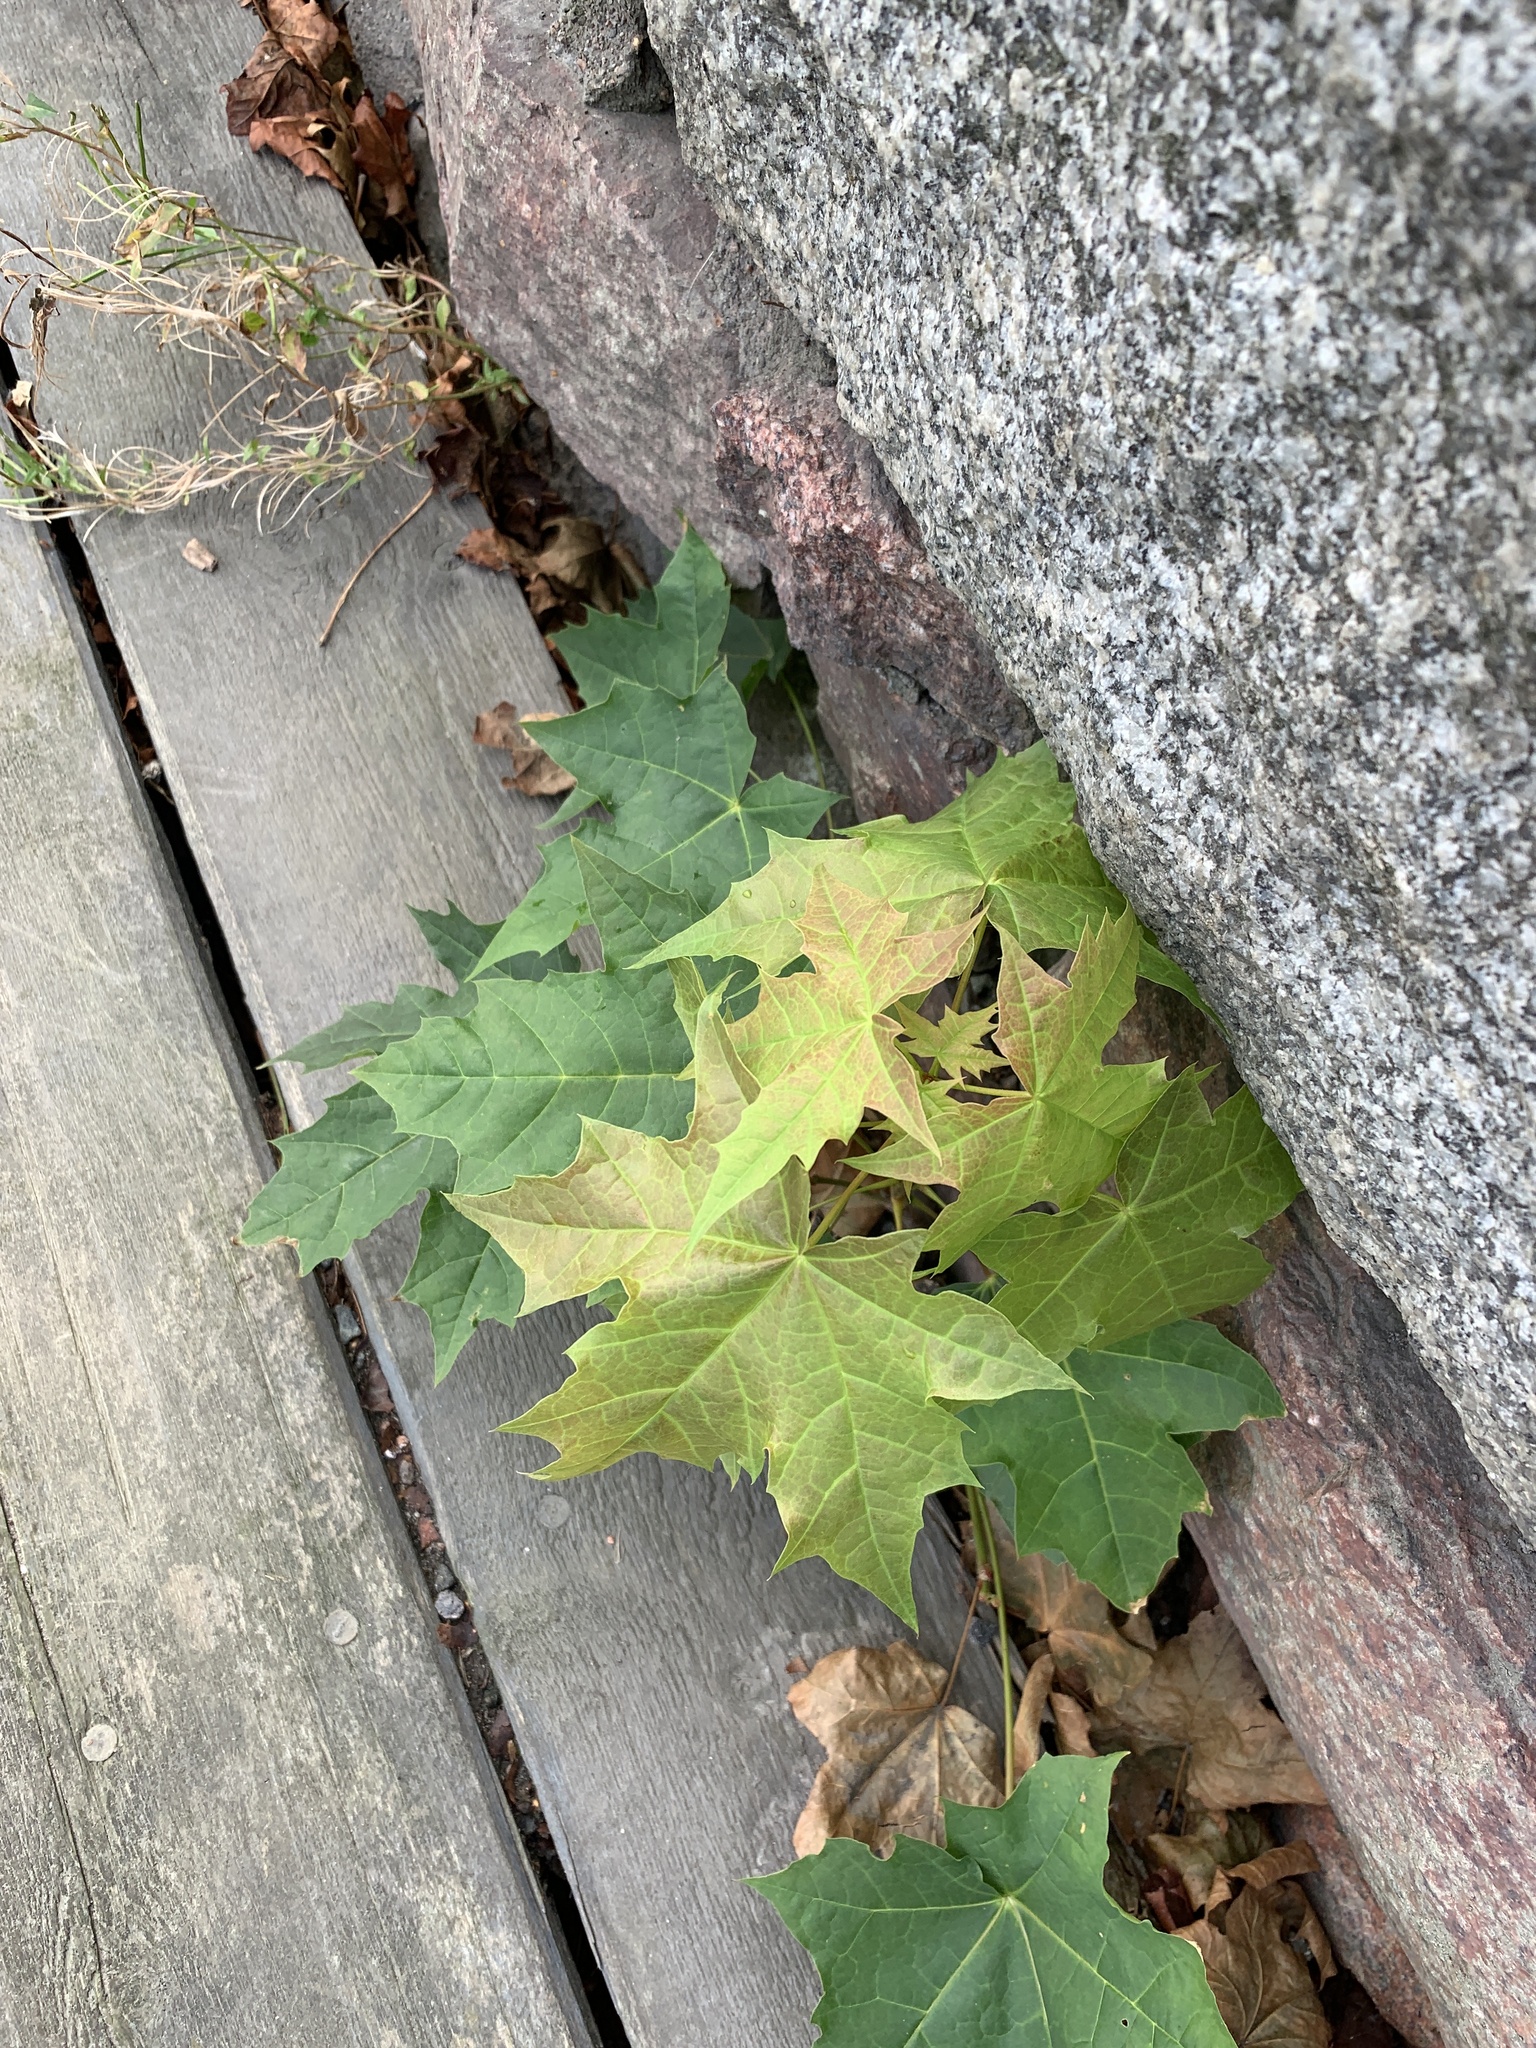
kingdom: Plantae
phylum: Tracheophyta
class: Magnoliopsida
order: Sapindales
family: Sapindaceae
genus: Acer
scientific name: Acer platanoides
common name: Norway maple
